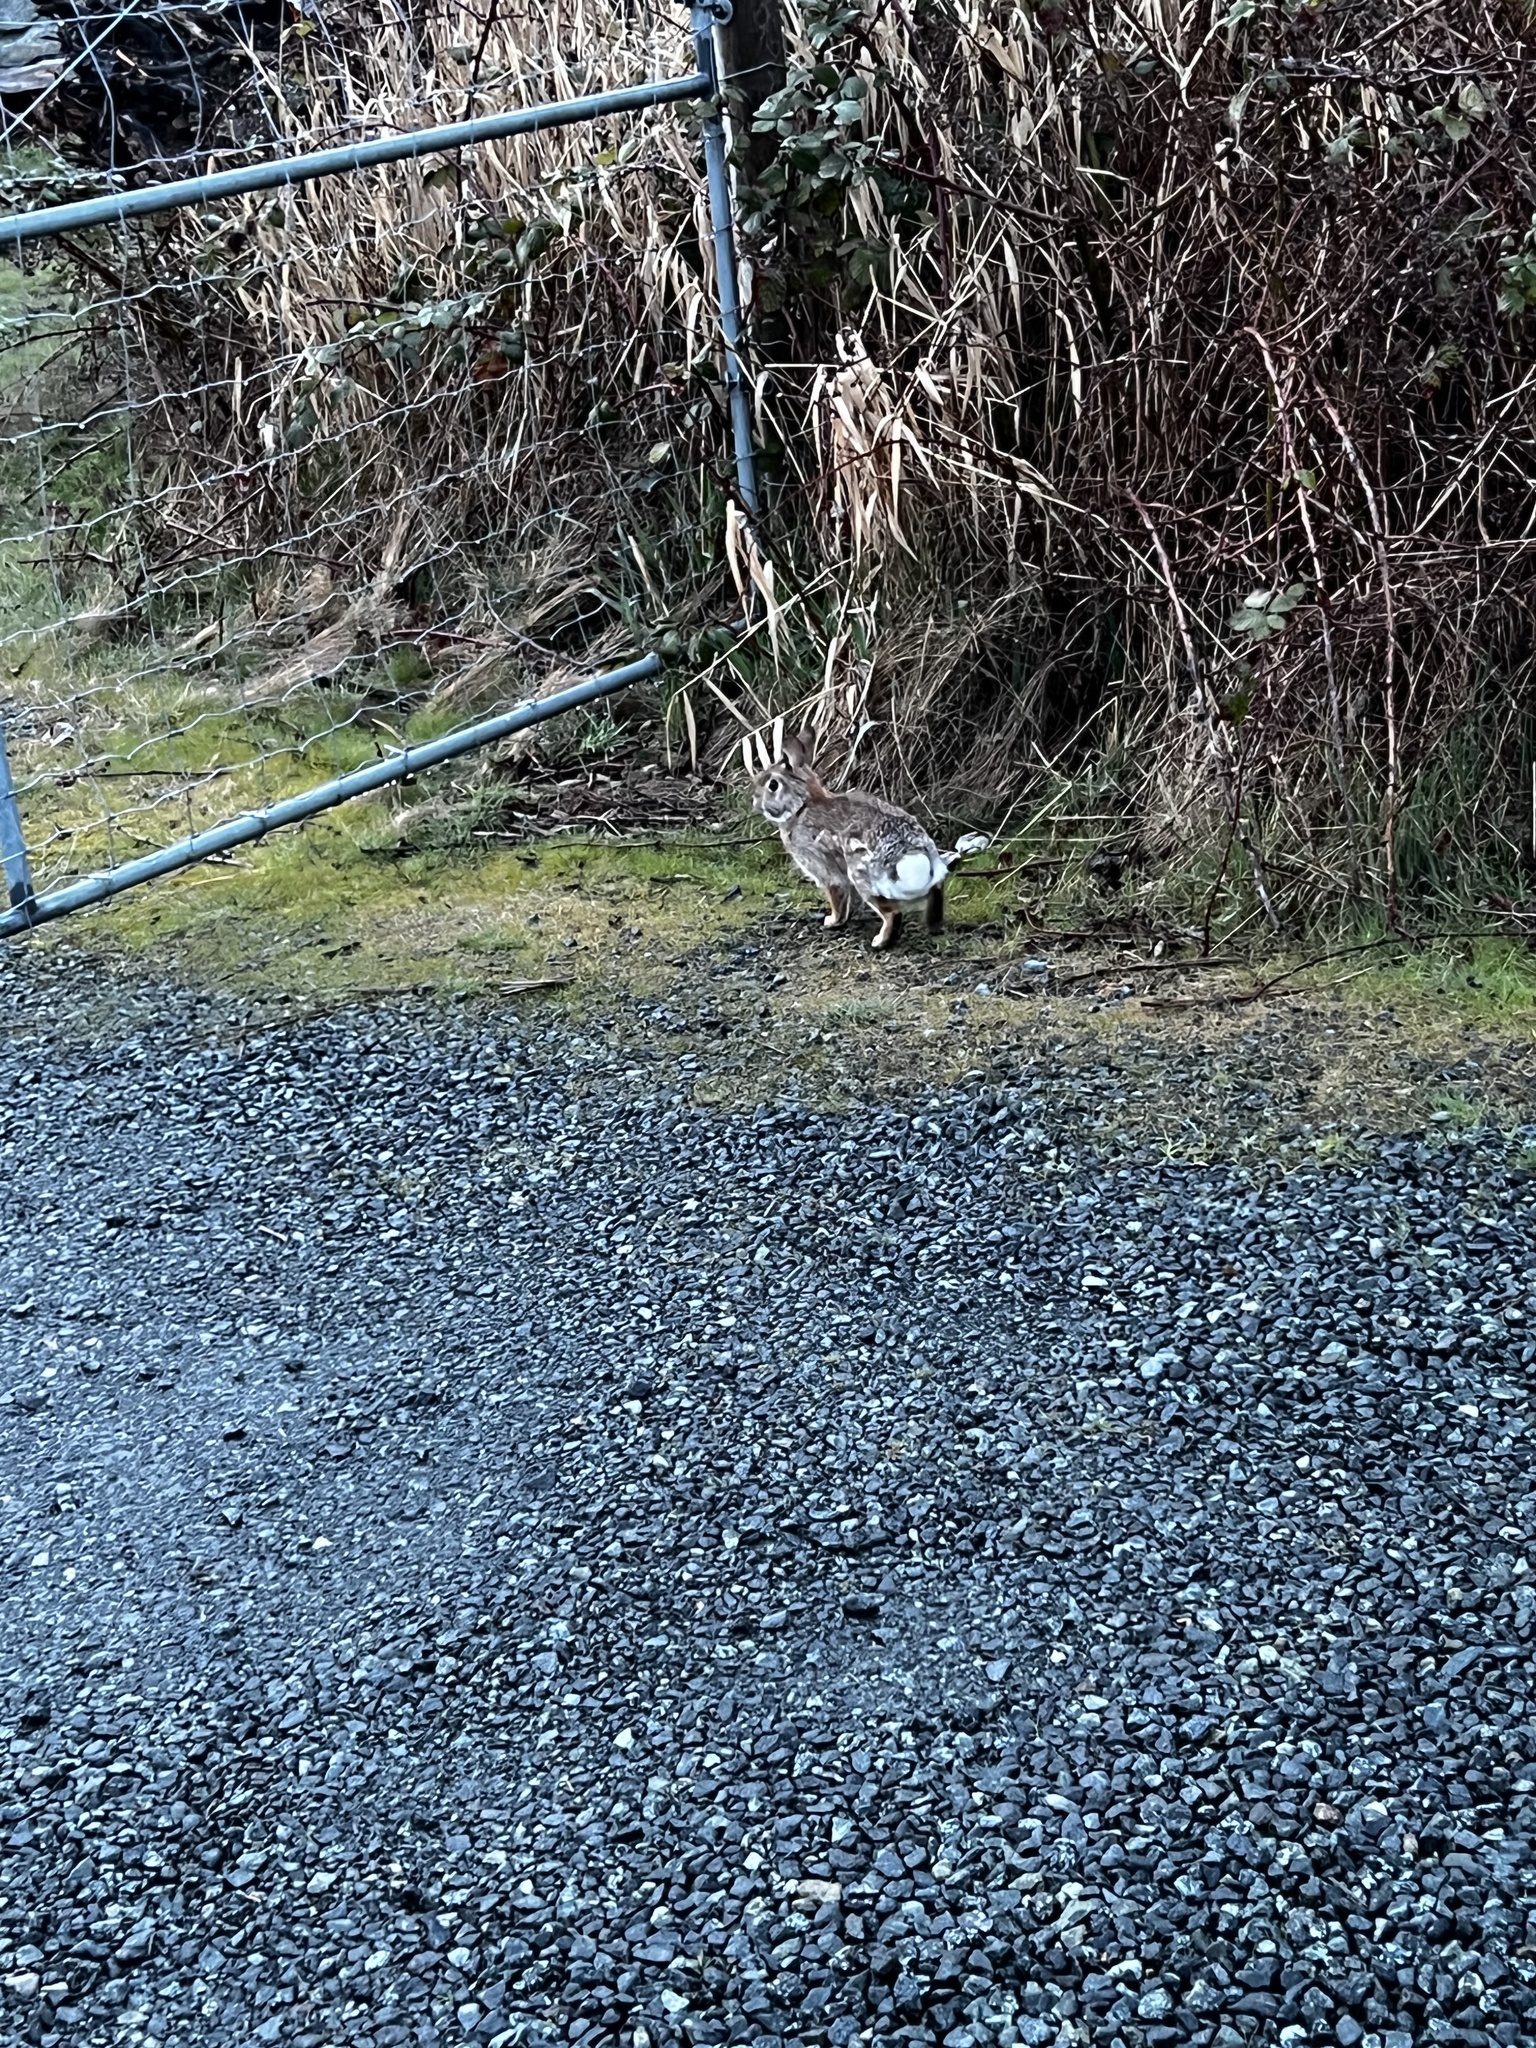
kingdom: Animalia
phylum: Chordata
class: Mammalia
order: Lagomorpha
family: Leporidae
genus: Sylvilagus
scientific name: Sylvilagus floridanus
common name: Eastern cottontail
